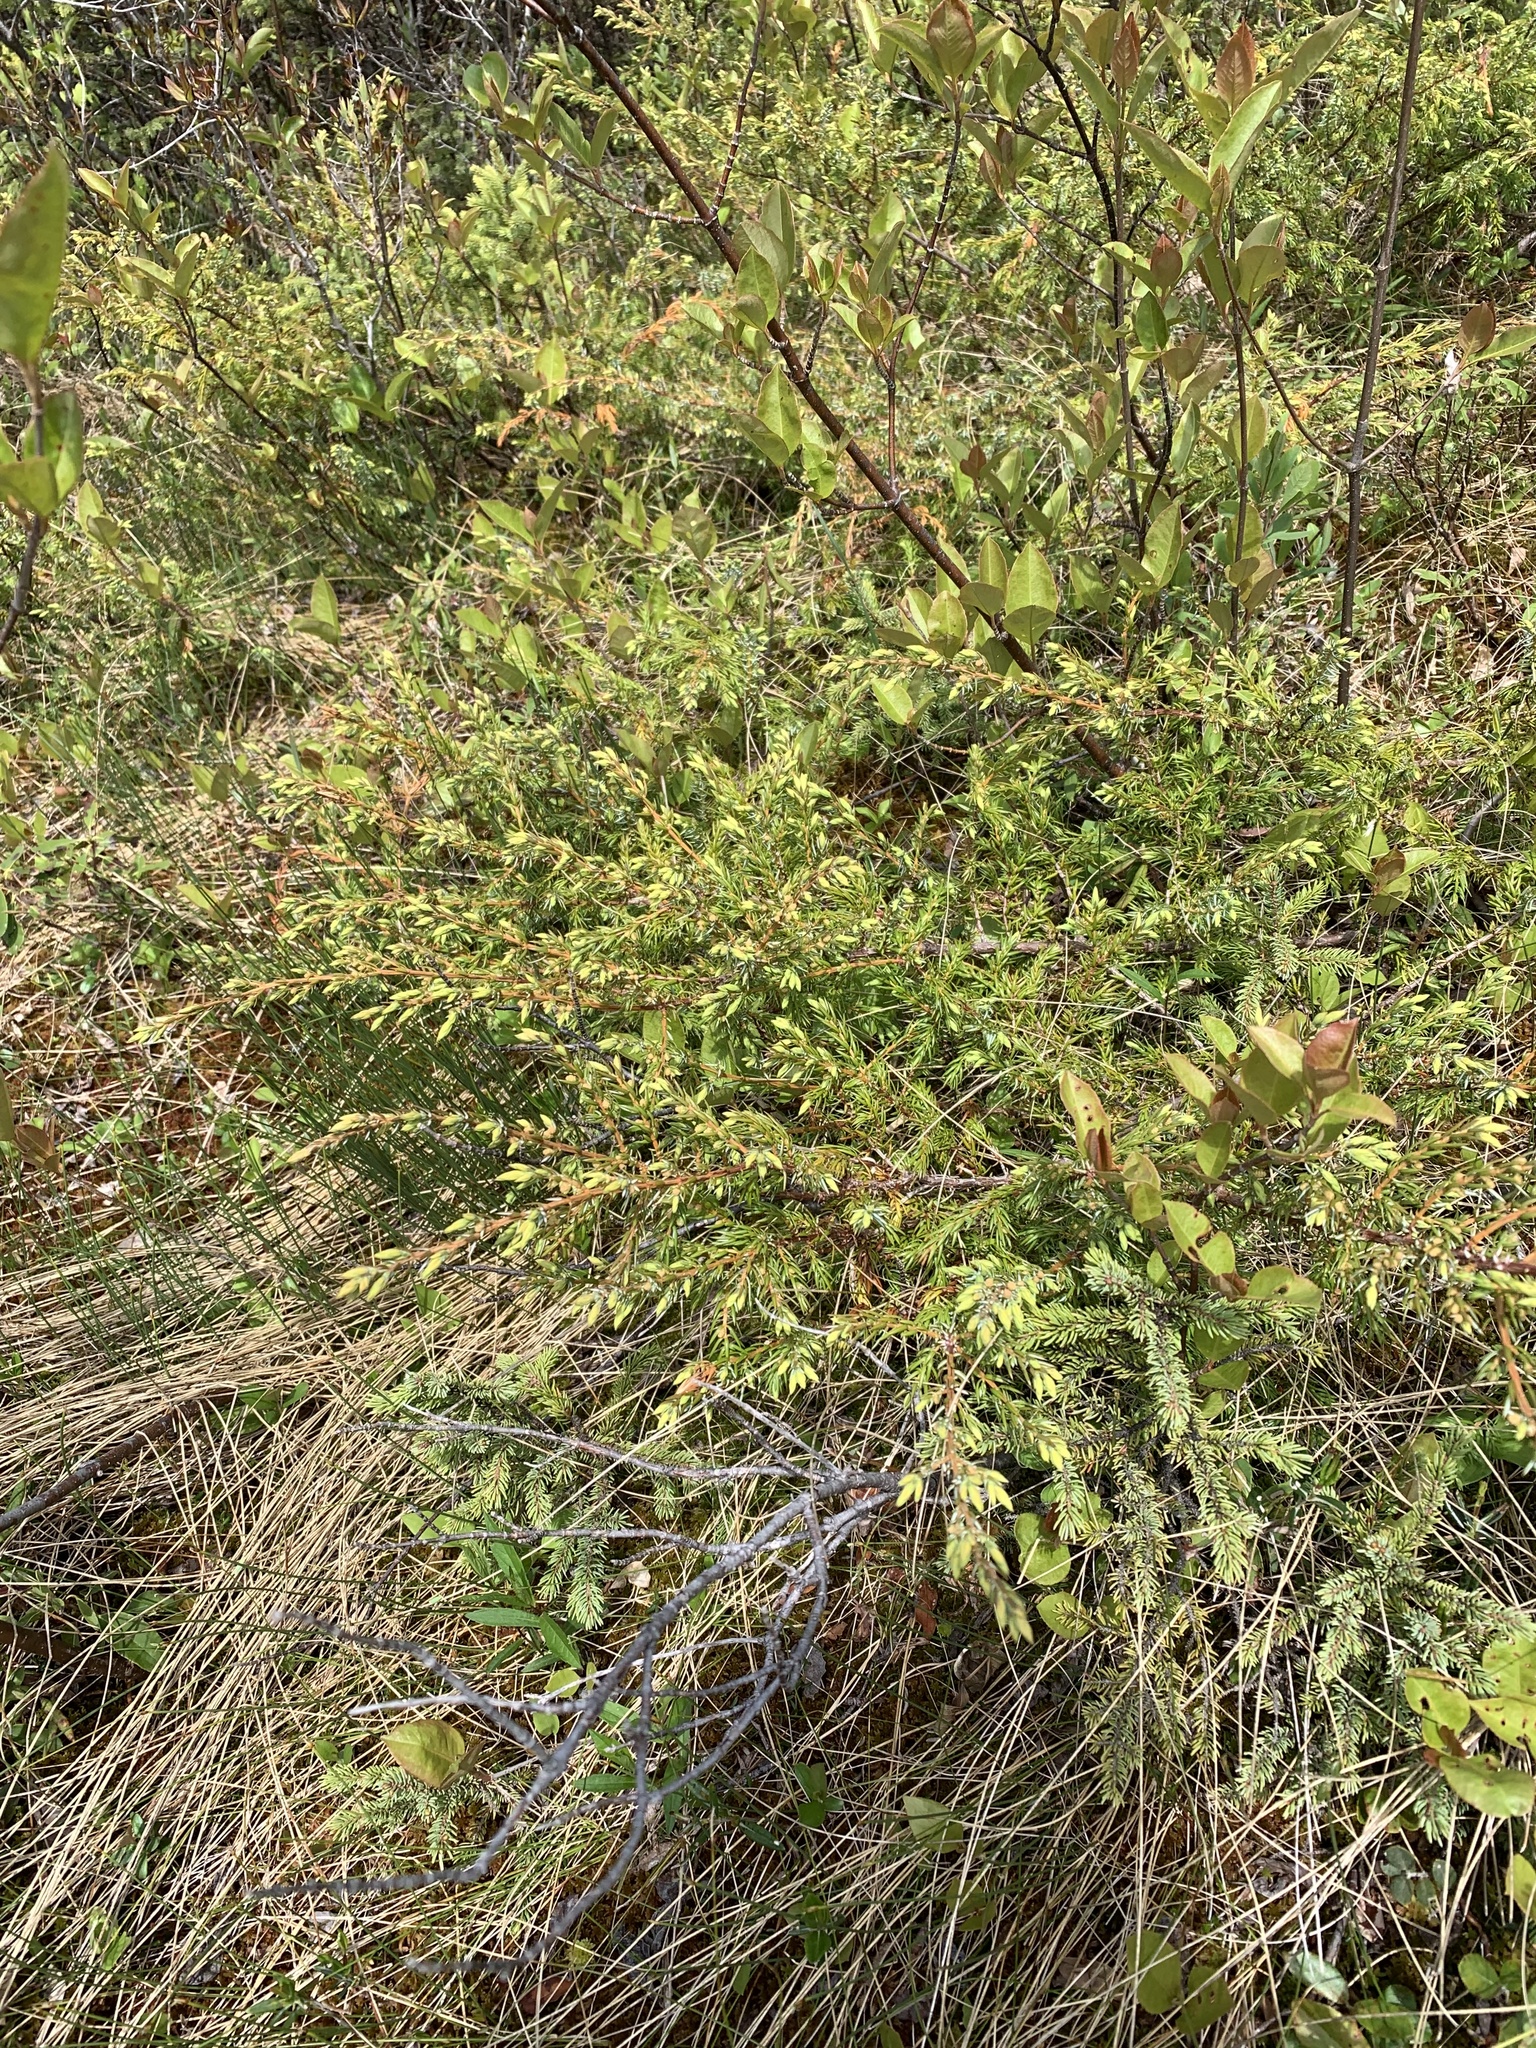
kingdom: Plantae
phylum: Tracheophyta
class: Pinopsida
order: Pinales
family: Cupressaceae
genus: Juniperus
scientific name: Juniperus communis
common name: Common juniper
